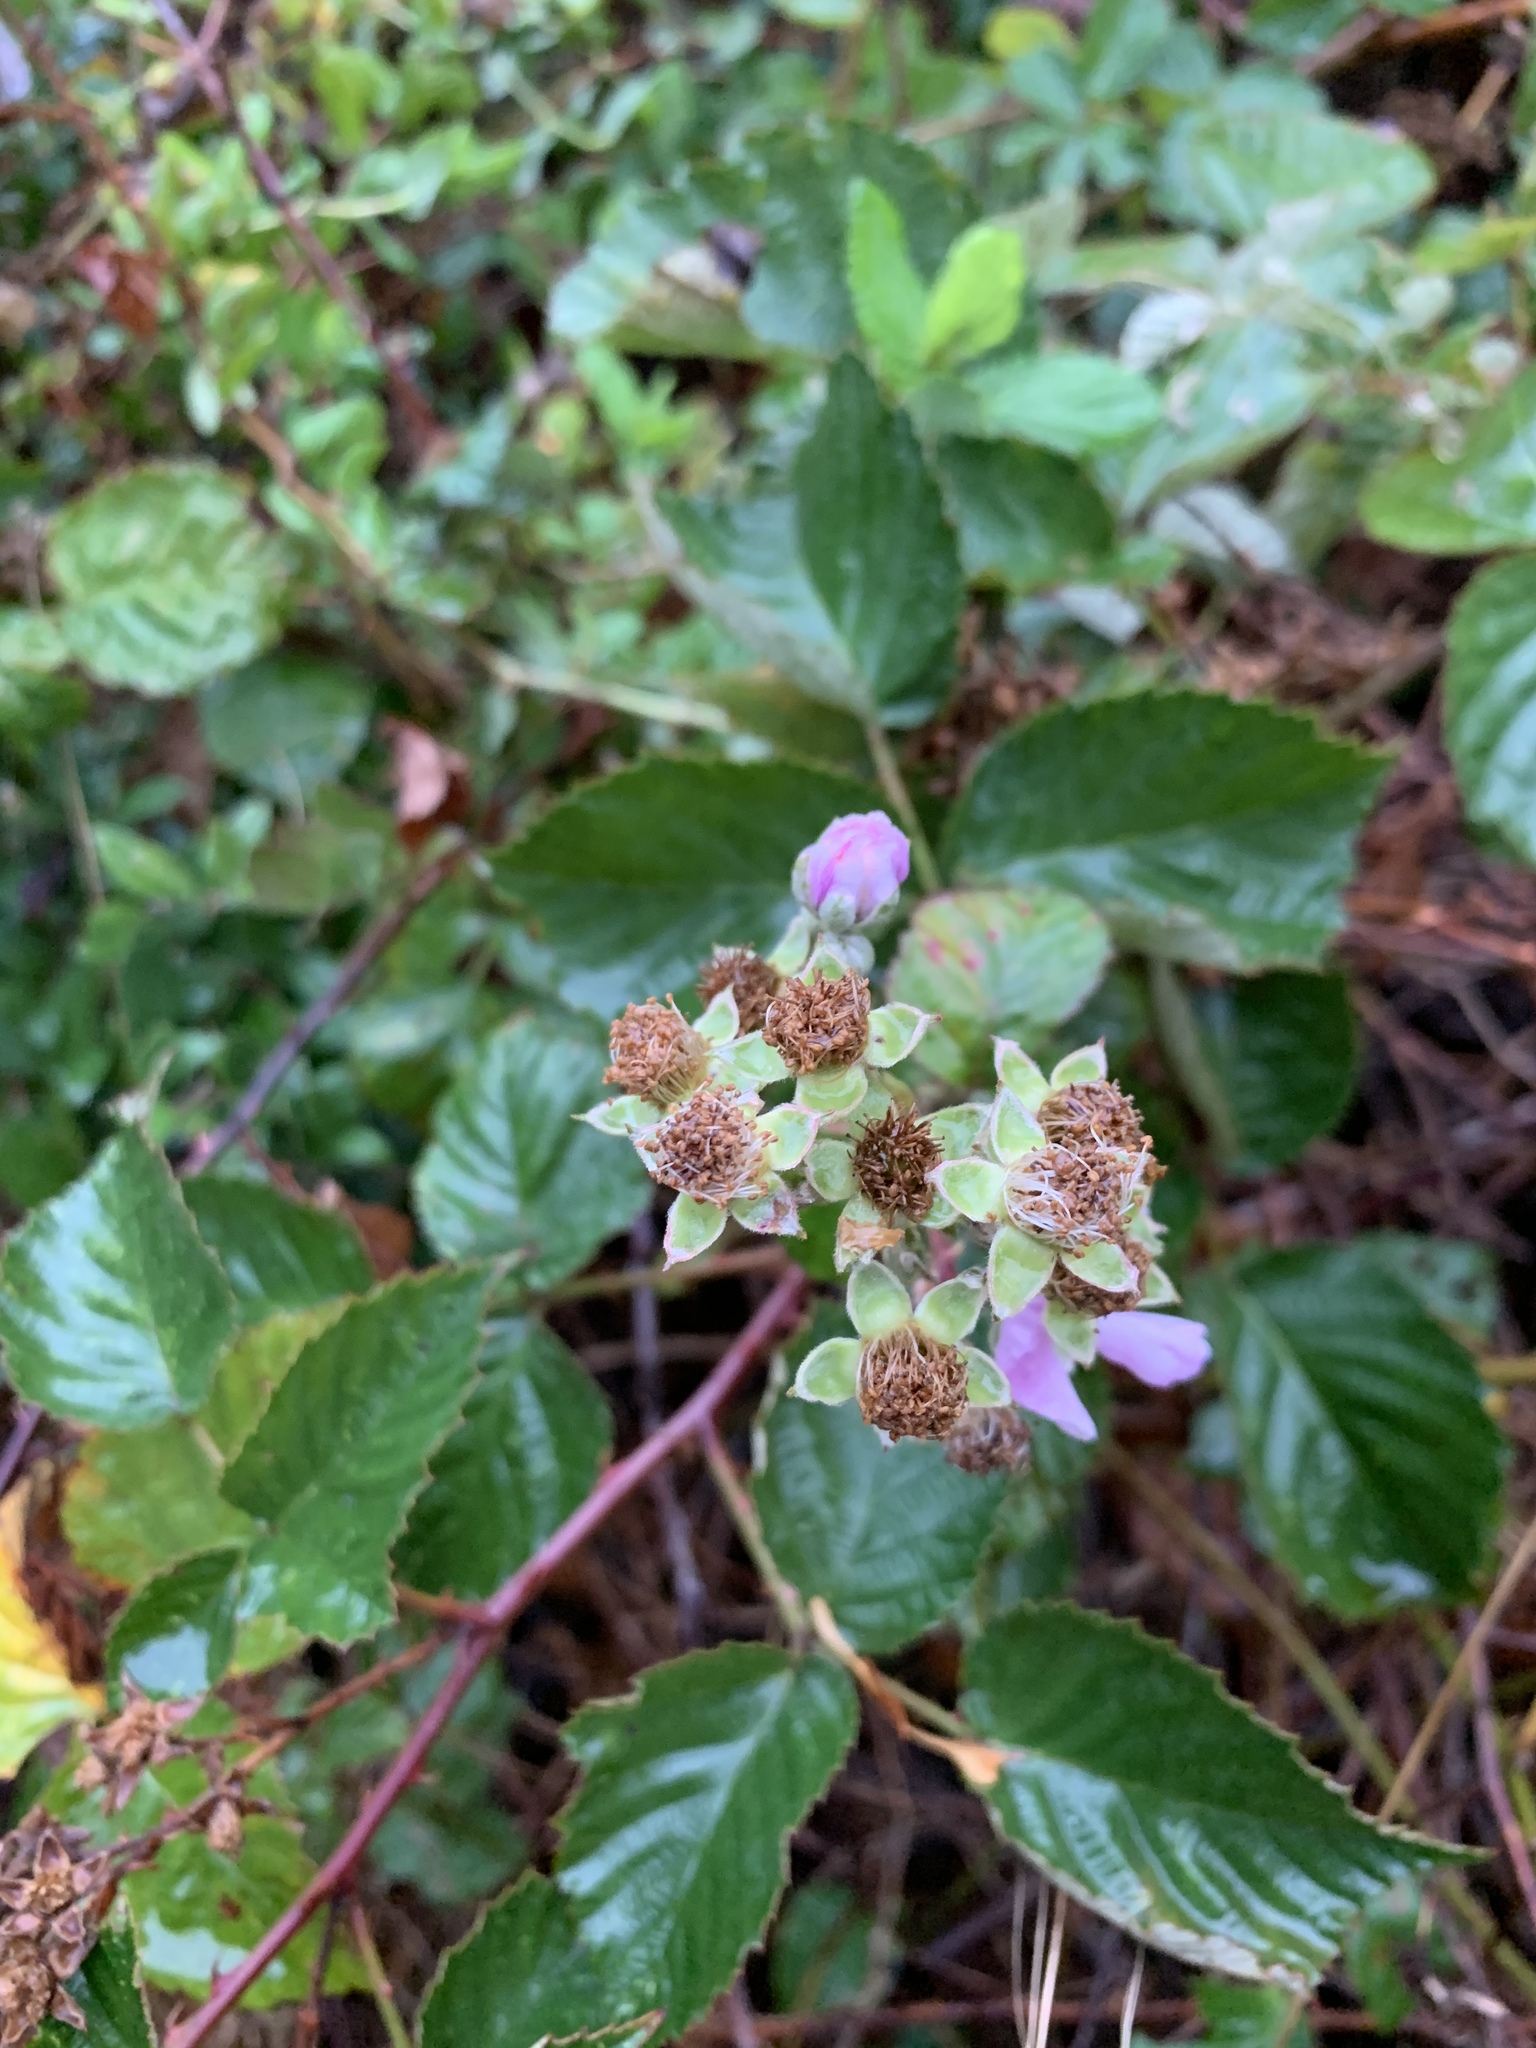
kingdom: Plantae
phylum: Tracheophyta
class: Magnoliopsida
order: Rosales
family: Rosaceae
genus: Rubus
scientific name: Rubus
